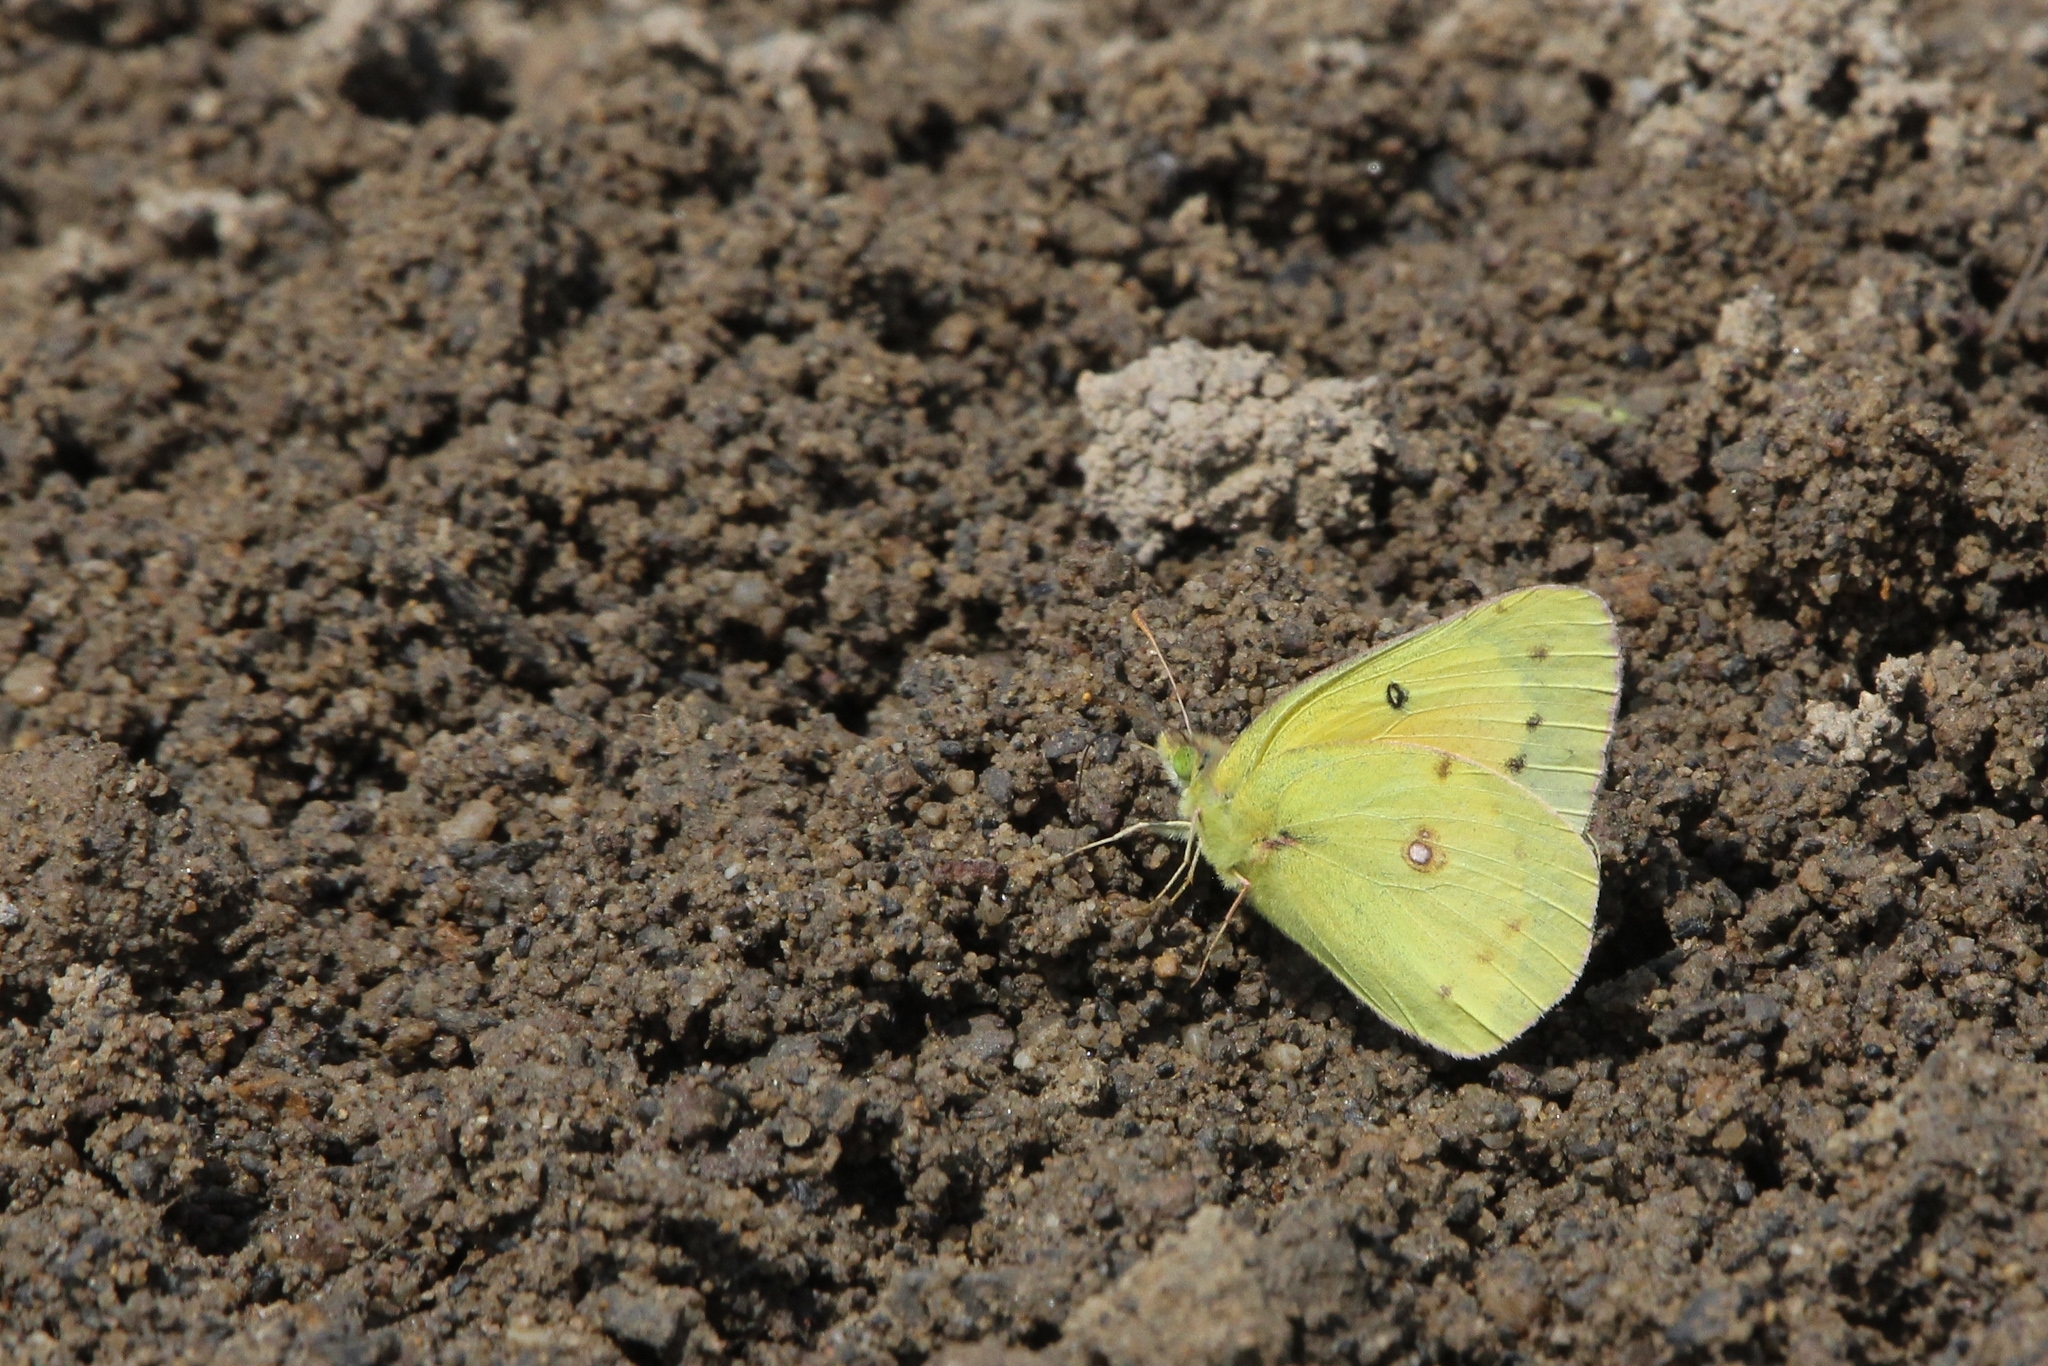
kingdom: Animalia
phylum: Arthropoda
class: Insecta
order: Lepidoptera
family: Pieridae
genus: Colias
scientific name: Colias eurytheme
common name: Alfalfa butterfly
